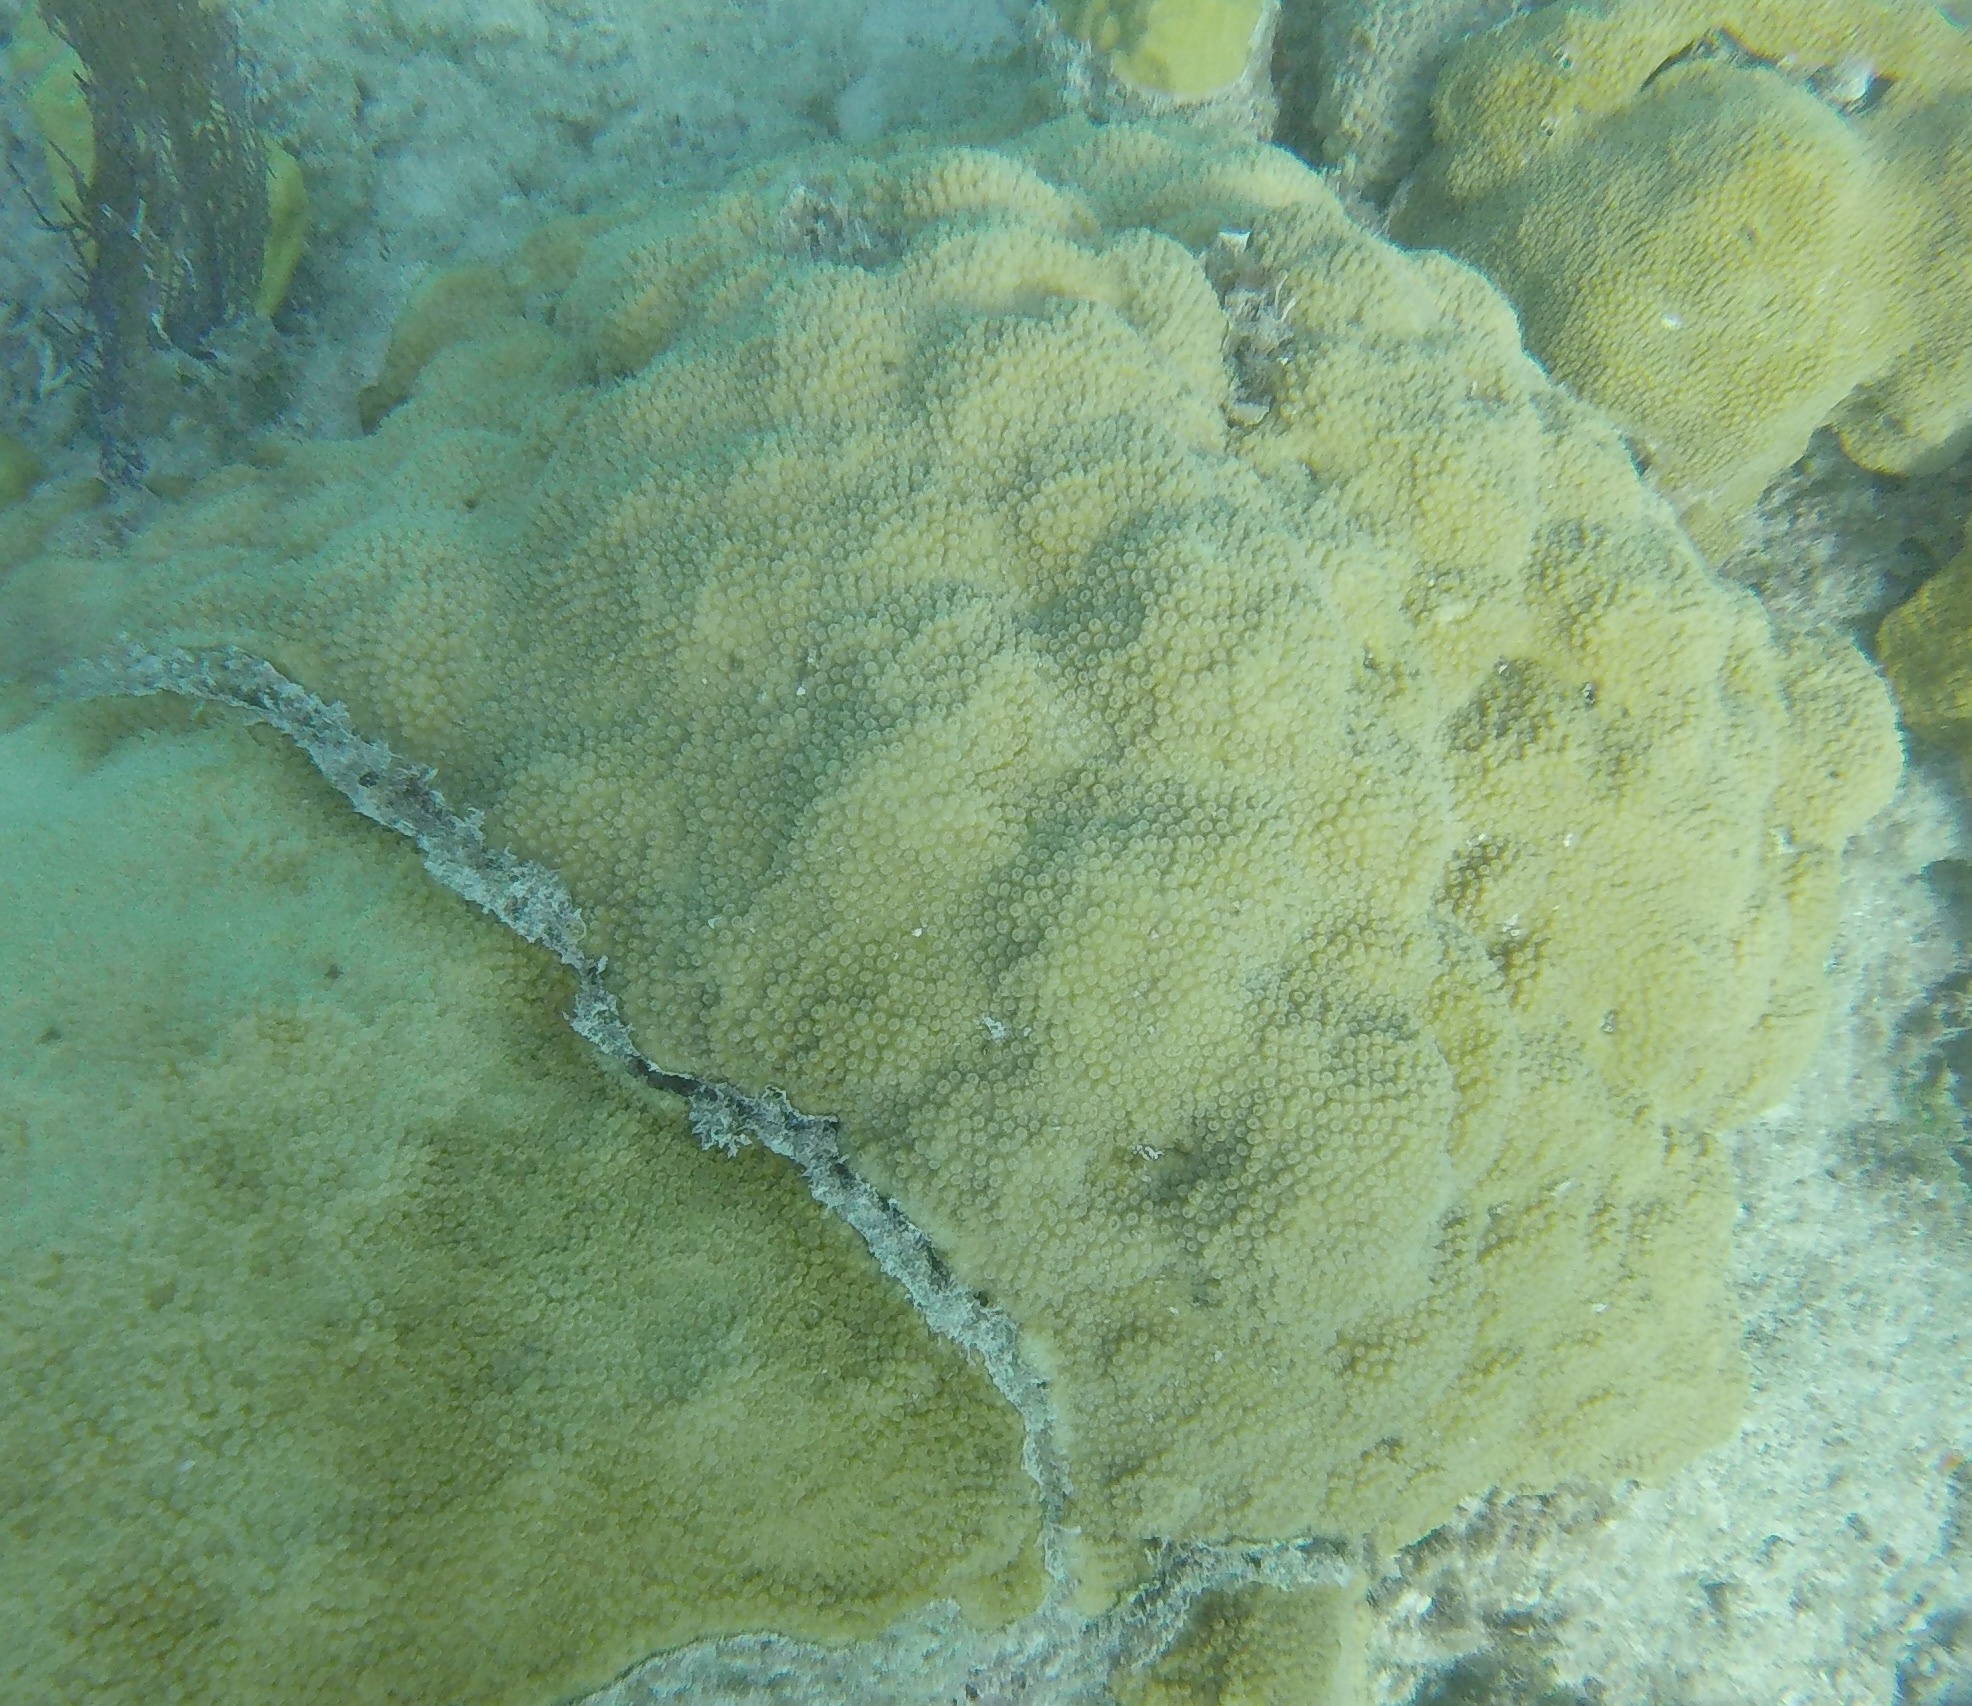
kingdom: Animalia
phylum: Cnidaria
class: Anthozoa
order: Scleractinia
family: Merulinidae
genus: Orbicella
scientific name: Orbicella franksi
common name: Bumpy star coral
